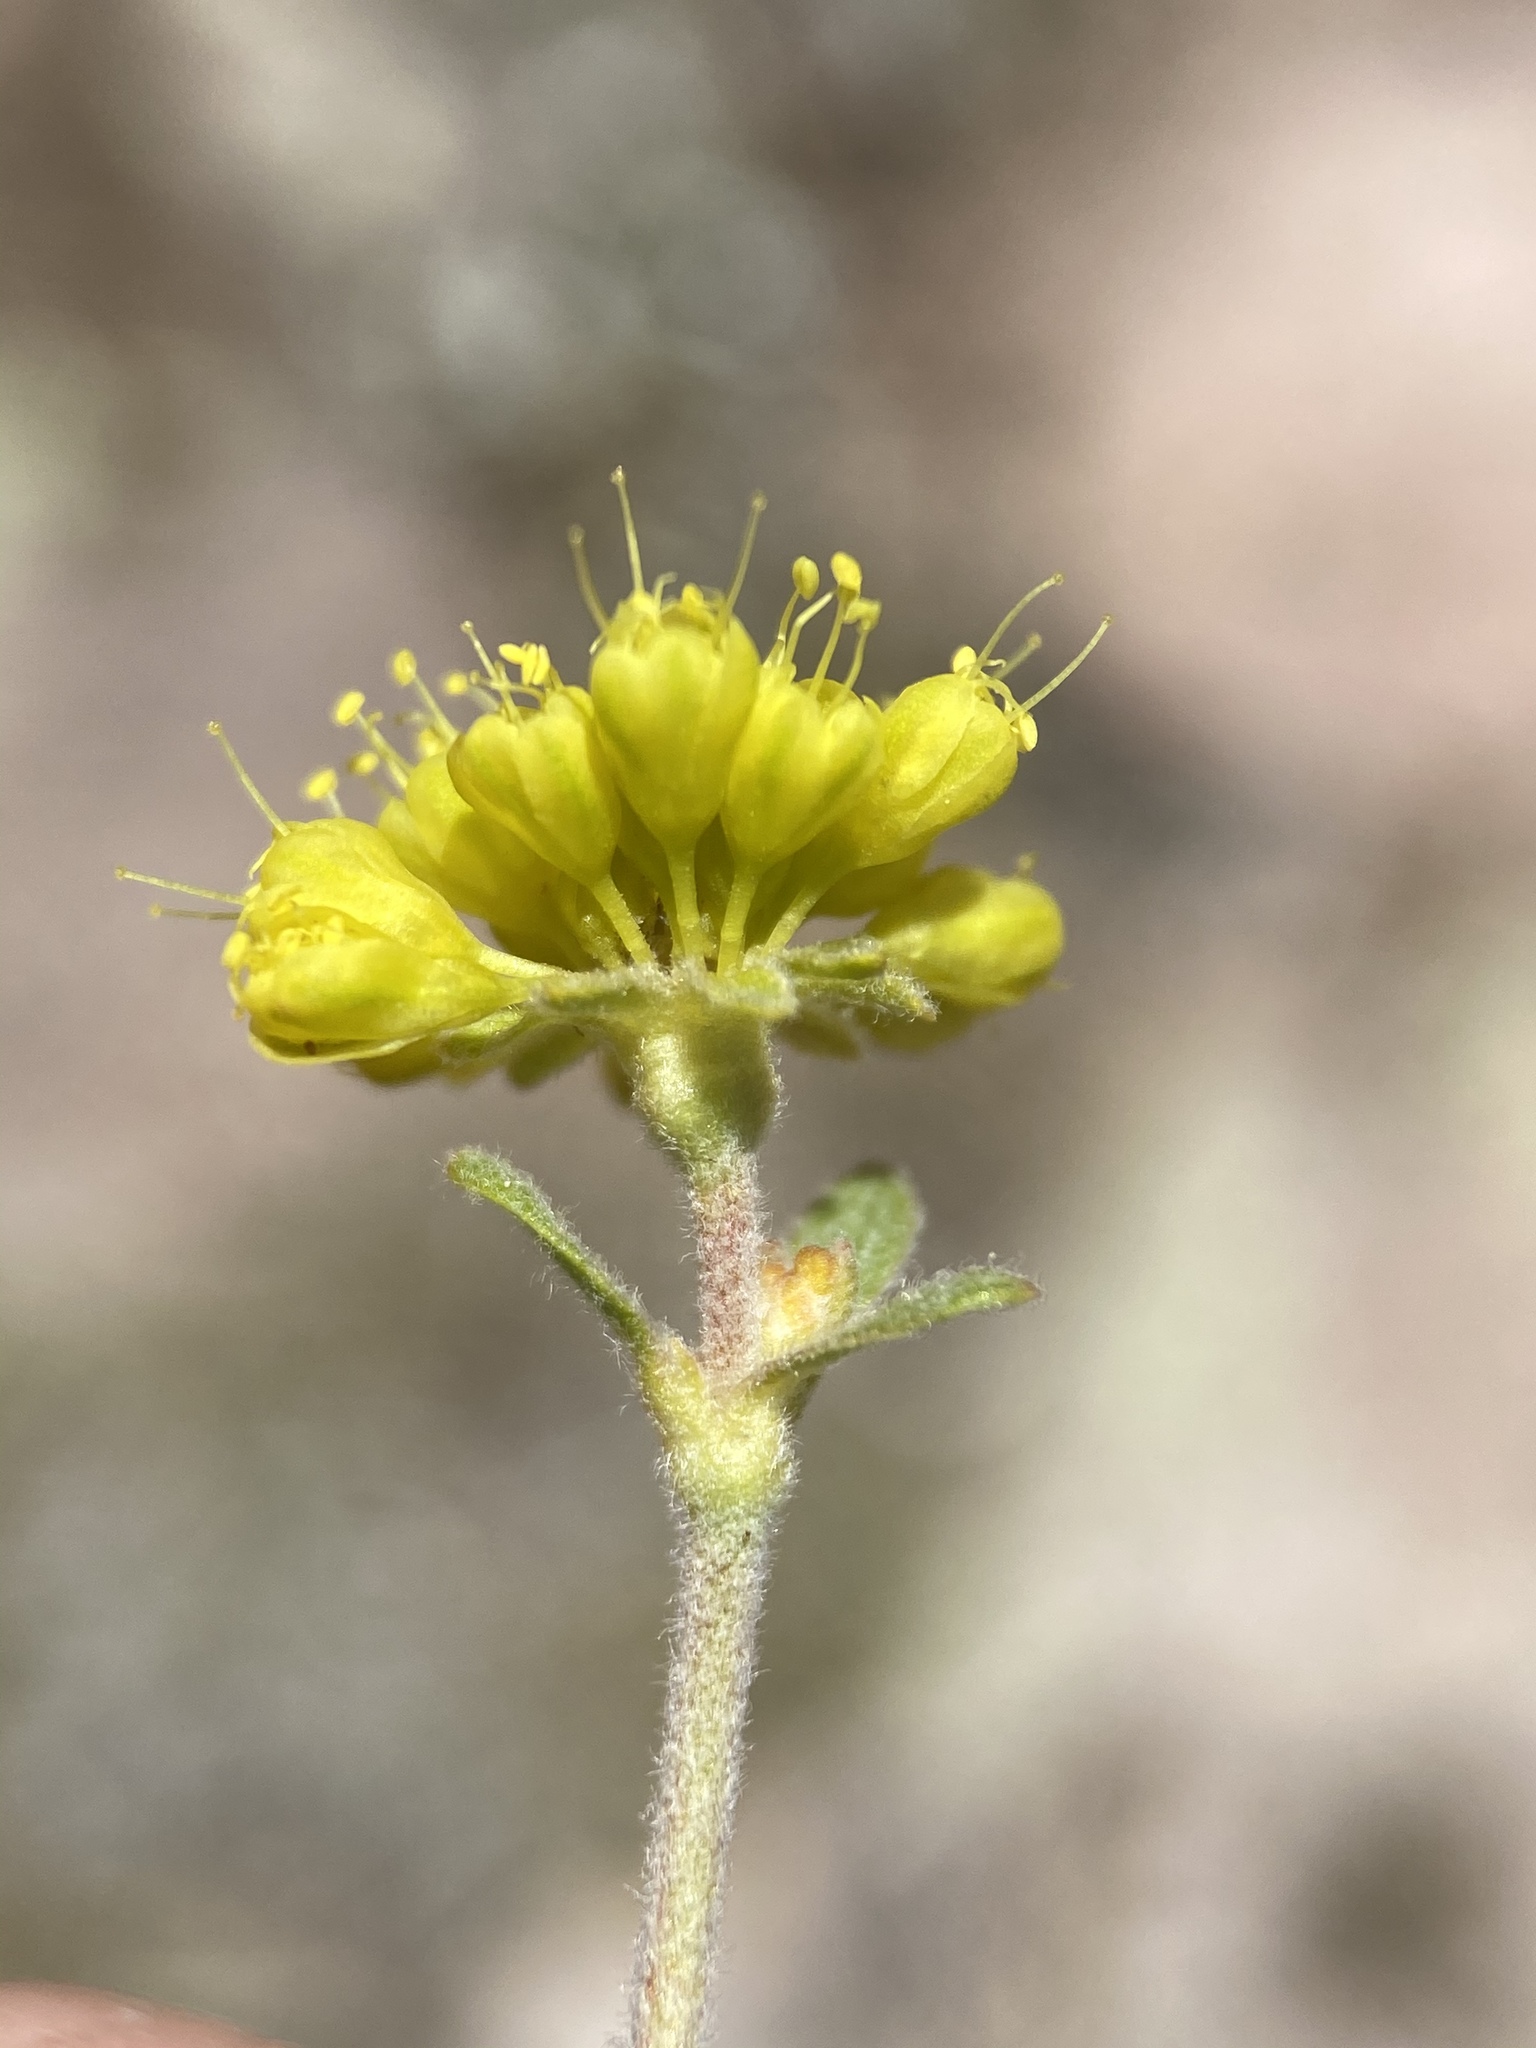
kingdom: Plantae
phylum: Tracheophyta
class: Magnoliopsida
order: Caryophyllales
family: Polygonaceae
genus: Eriogonum
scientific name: Eriogonum umbellatum
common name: Sulfur-buckwheat
